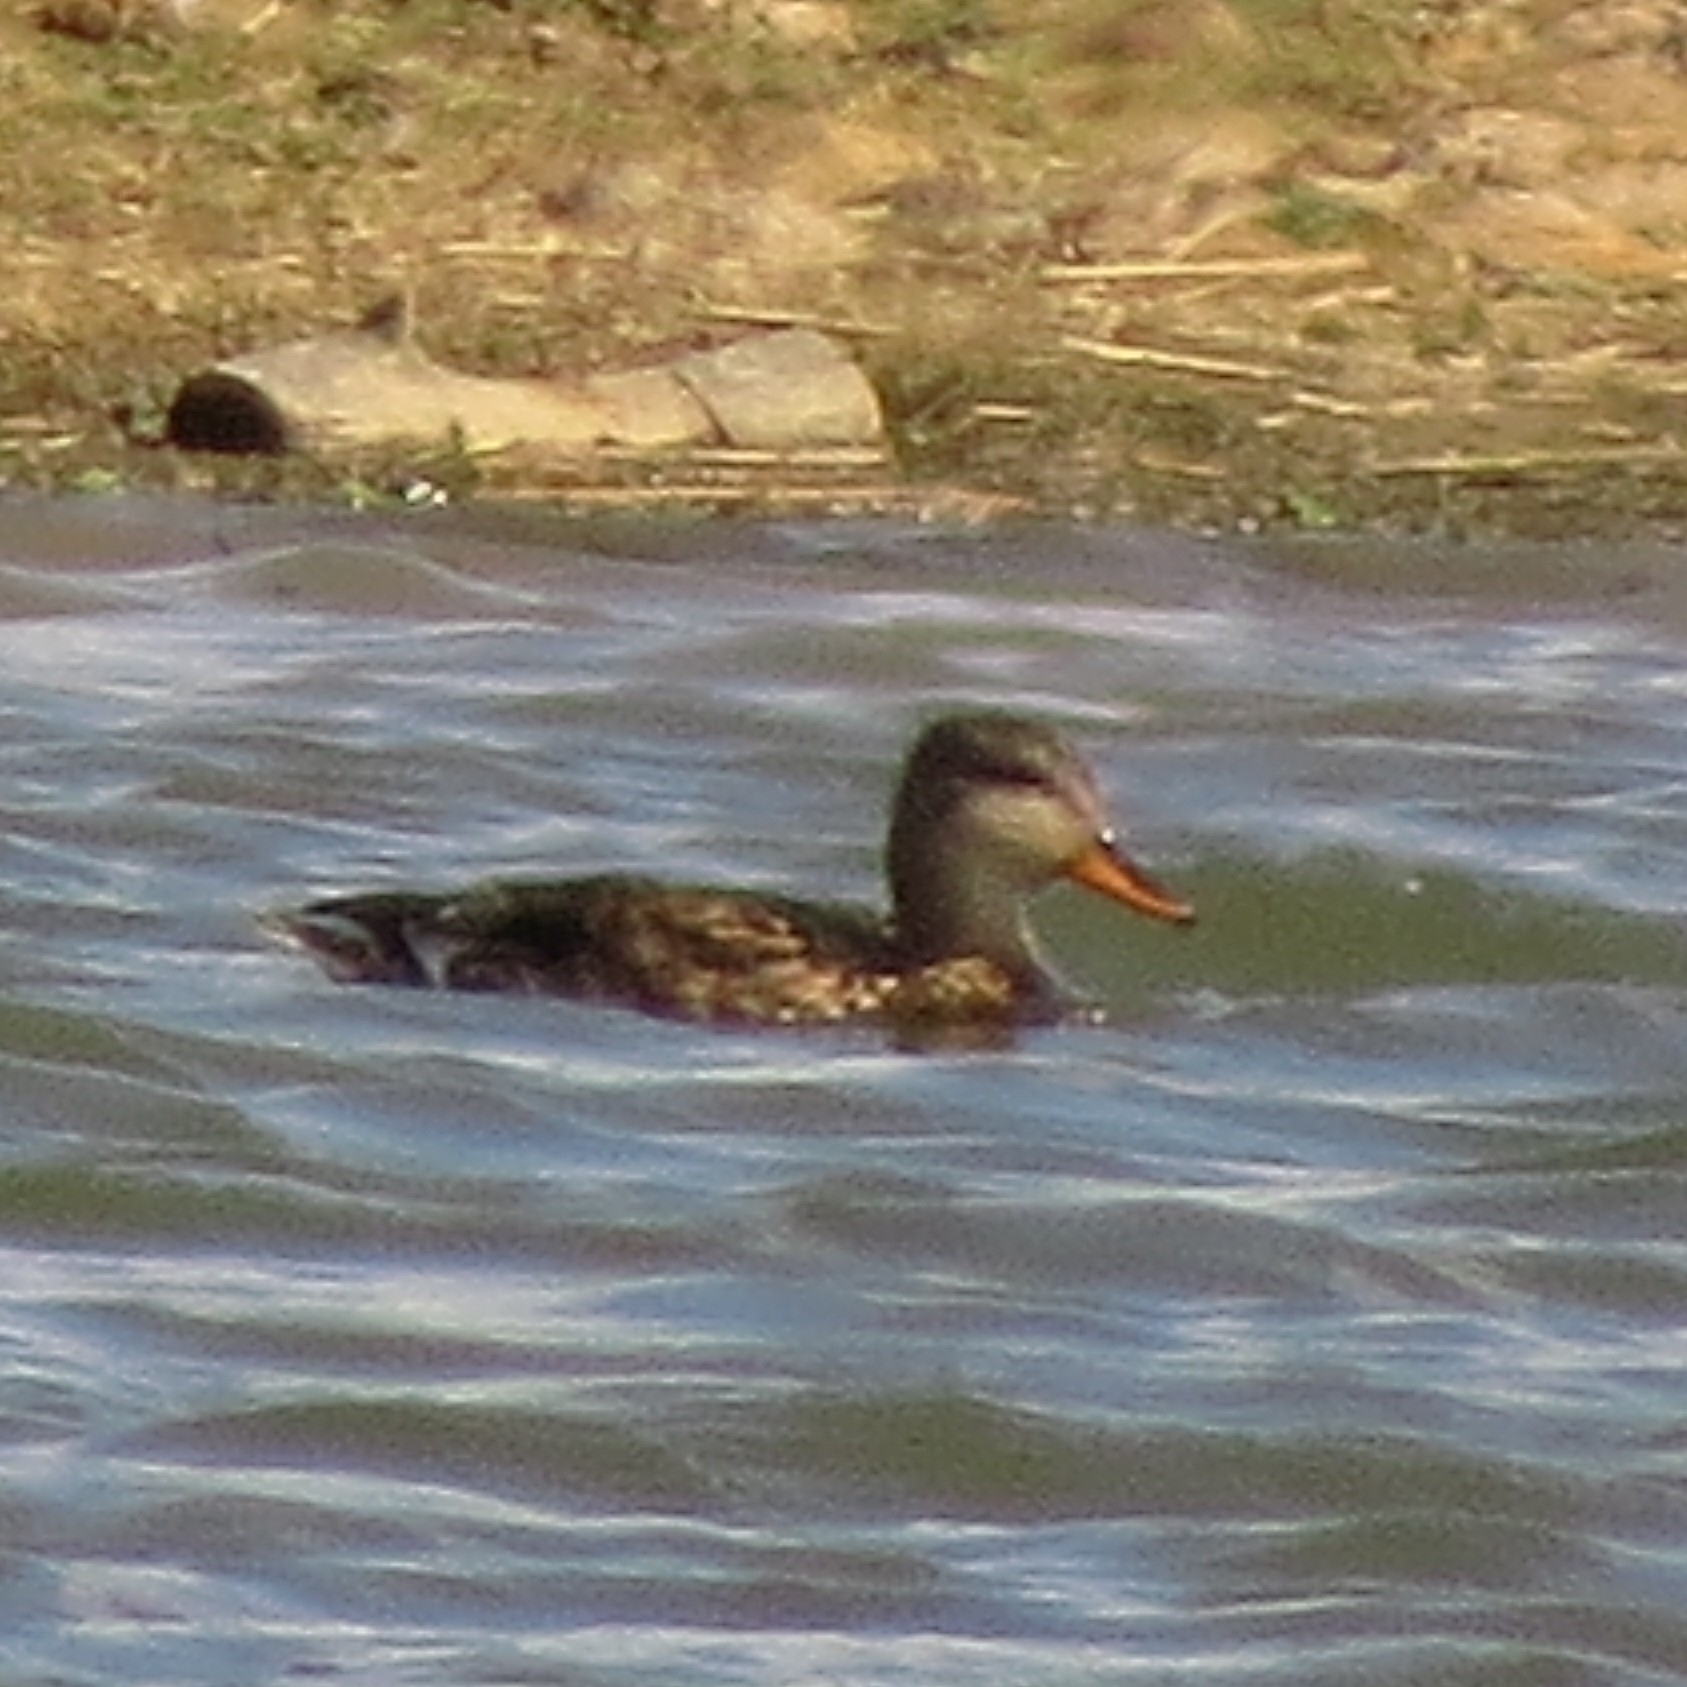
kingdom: Animalia
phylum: Chordata
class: Aves
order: Anseriformes
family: Anatidae
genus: Mareca
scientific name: Mareca strepera
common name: Gadwall
